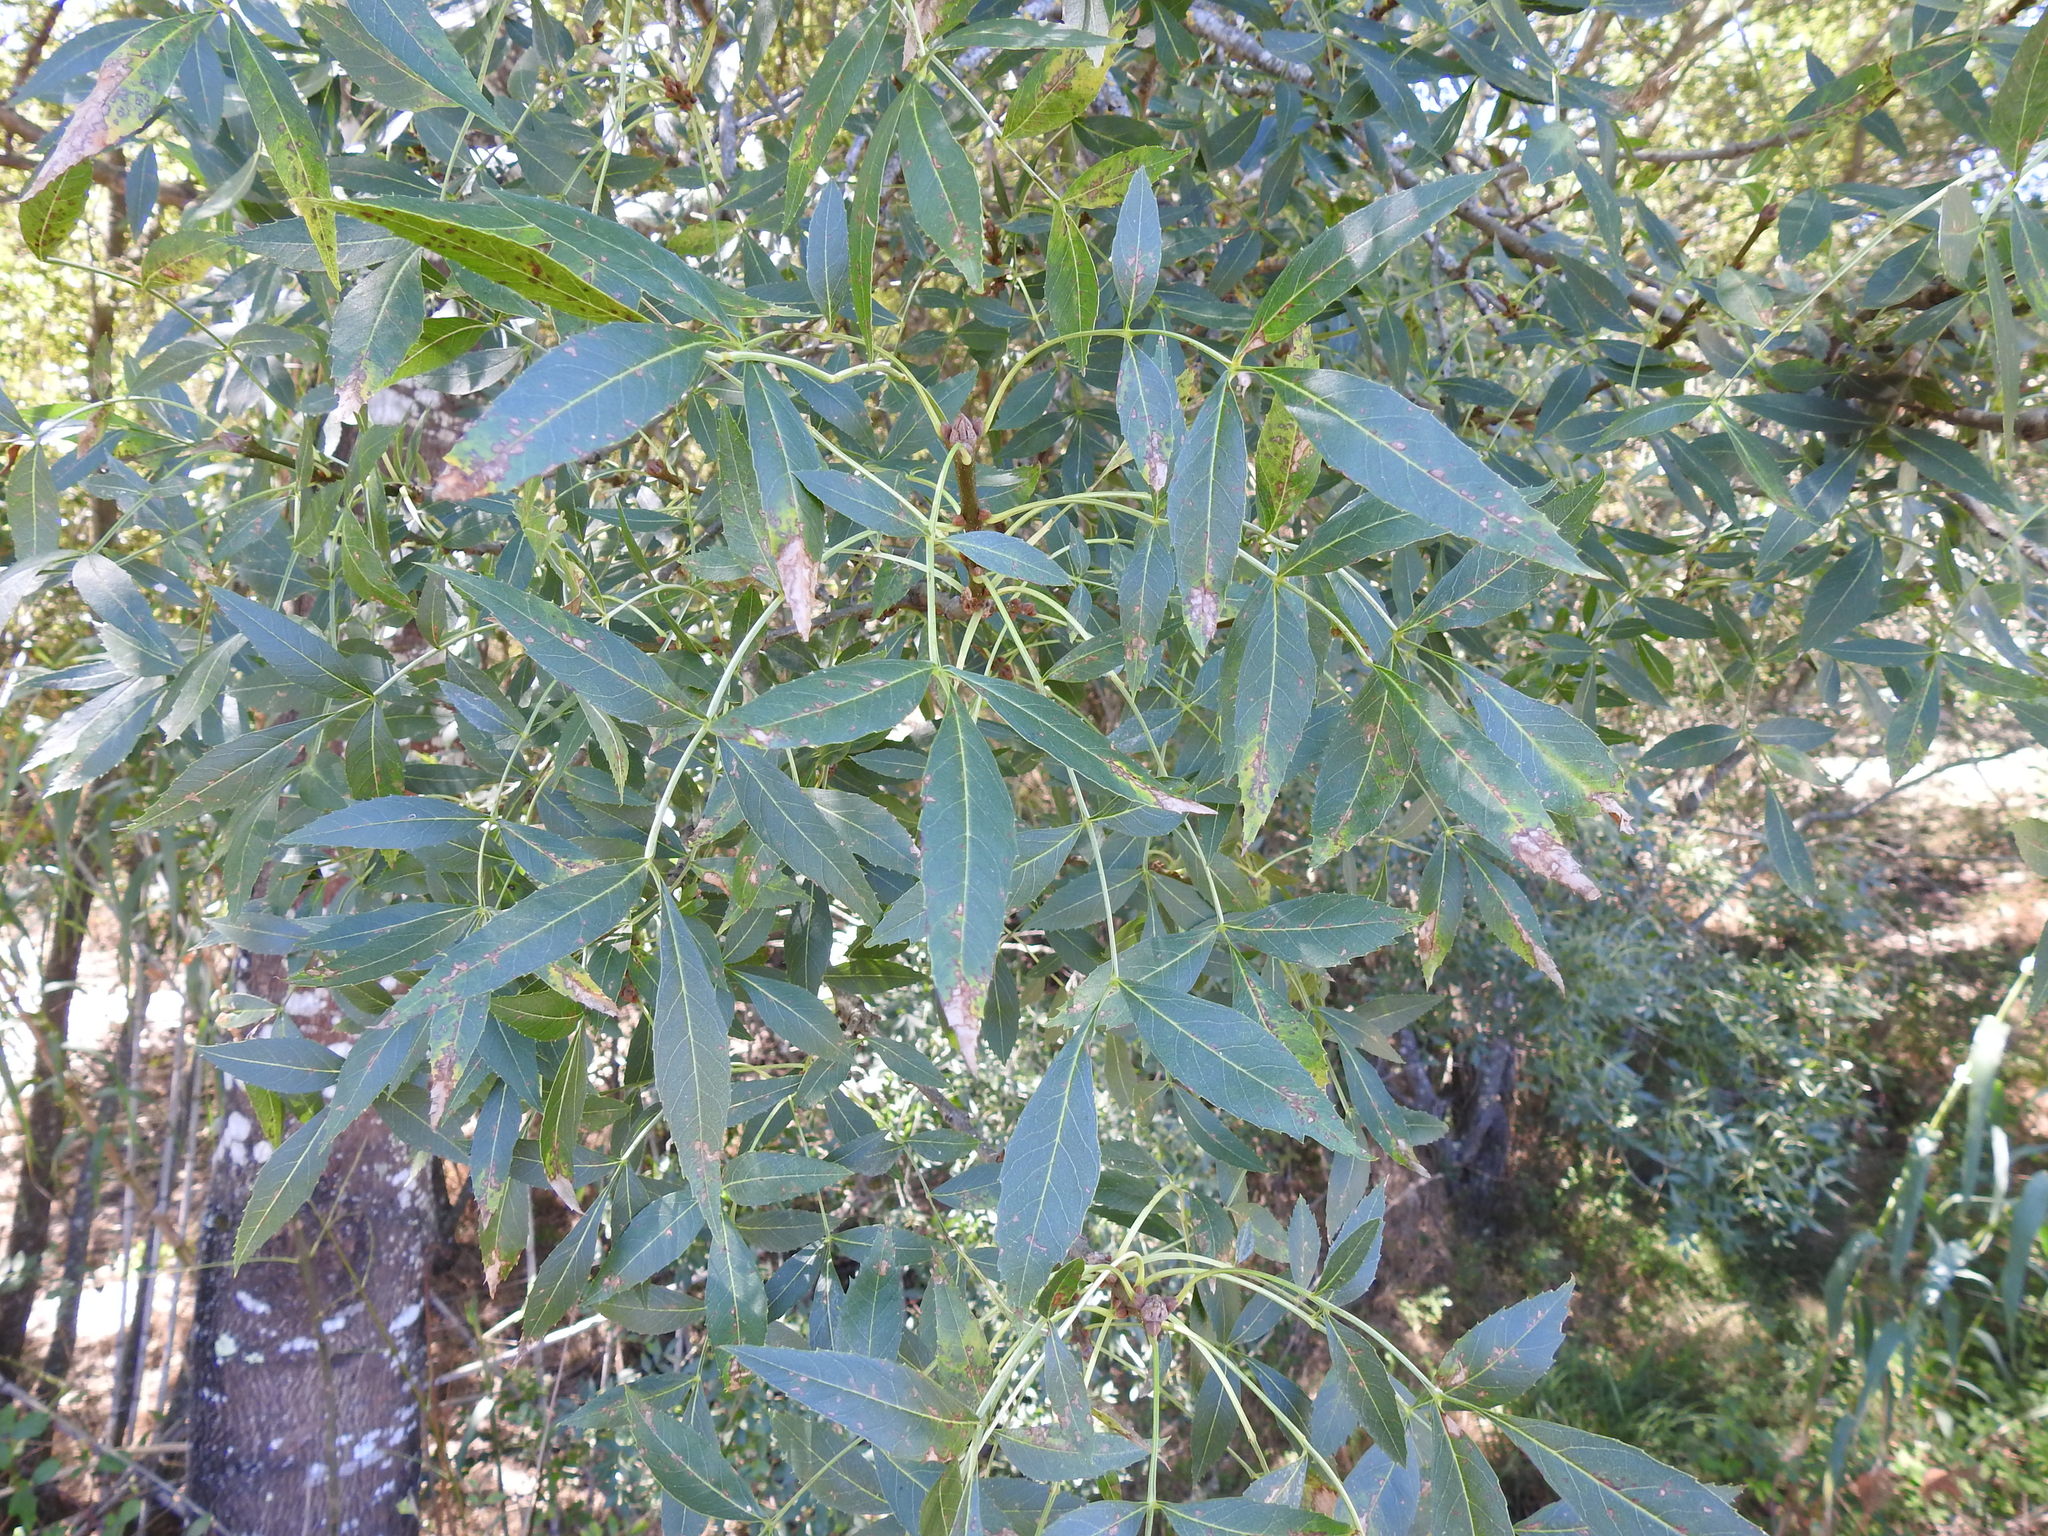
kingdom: Plantae
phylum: Tracheophyta
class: Magnoliopsida
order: Lamiales
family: Oleaceae
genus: Fraxinus
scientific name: Fraxinus angustifolia
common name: Narrow-leafed ash
